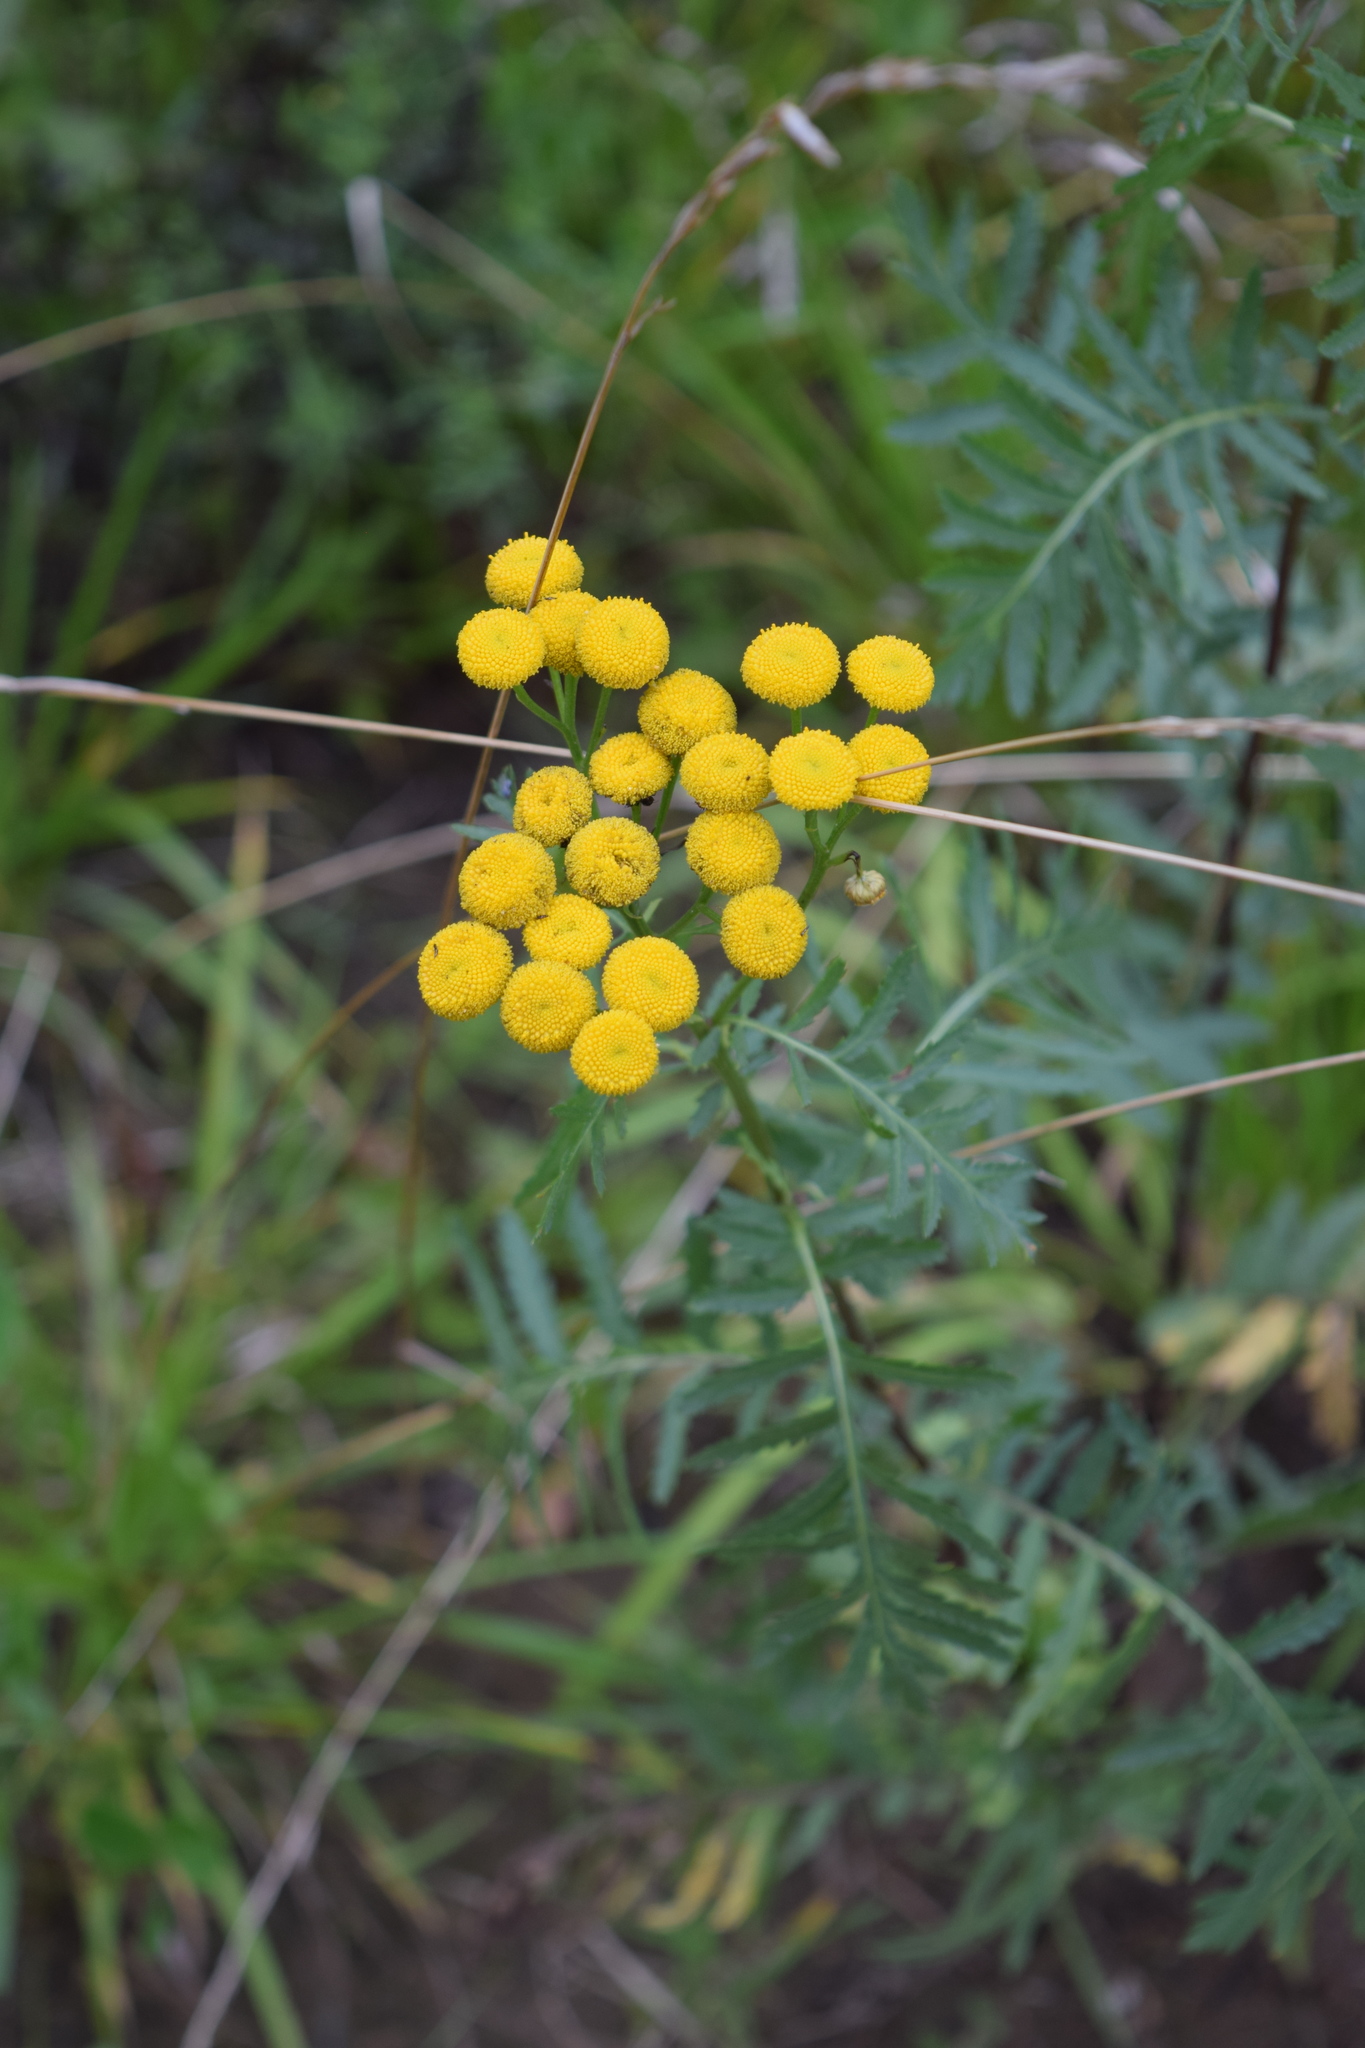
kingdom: Plantae
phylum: Tracheophyta
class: Magnoliopsida
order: Asterales
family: Asteraceae
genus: Tanacetum
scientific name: Tanacetum vulgare
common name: Common tansy
